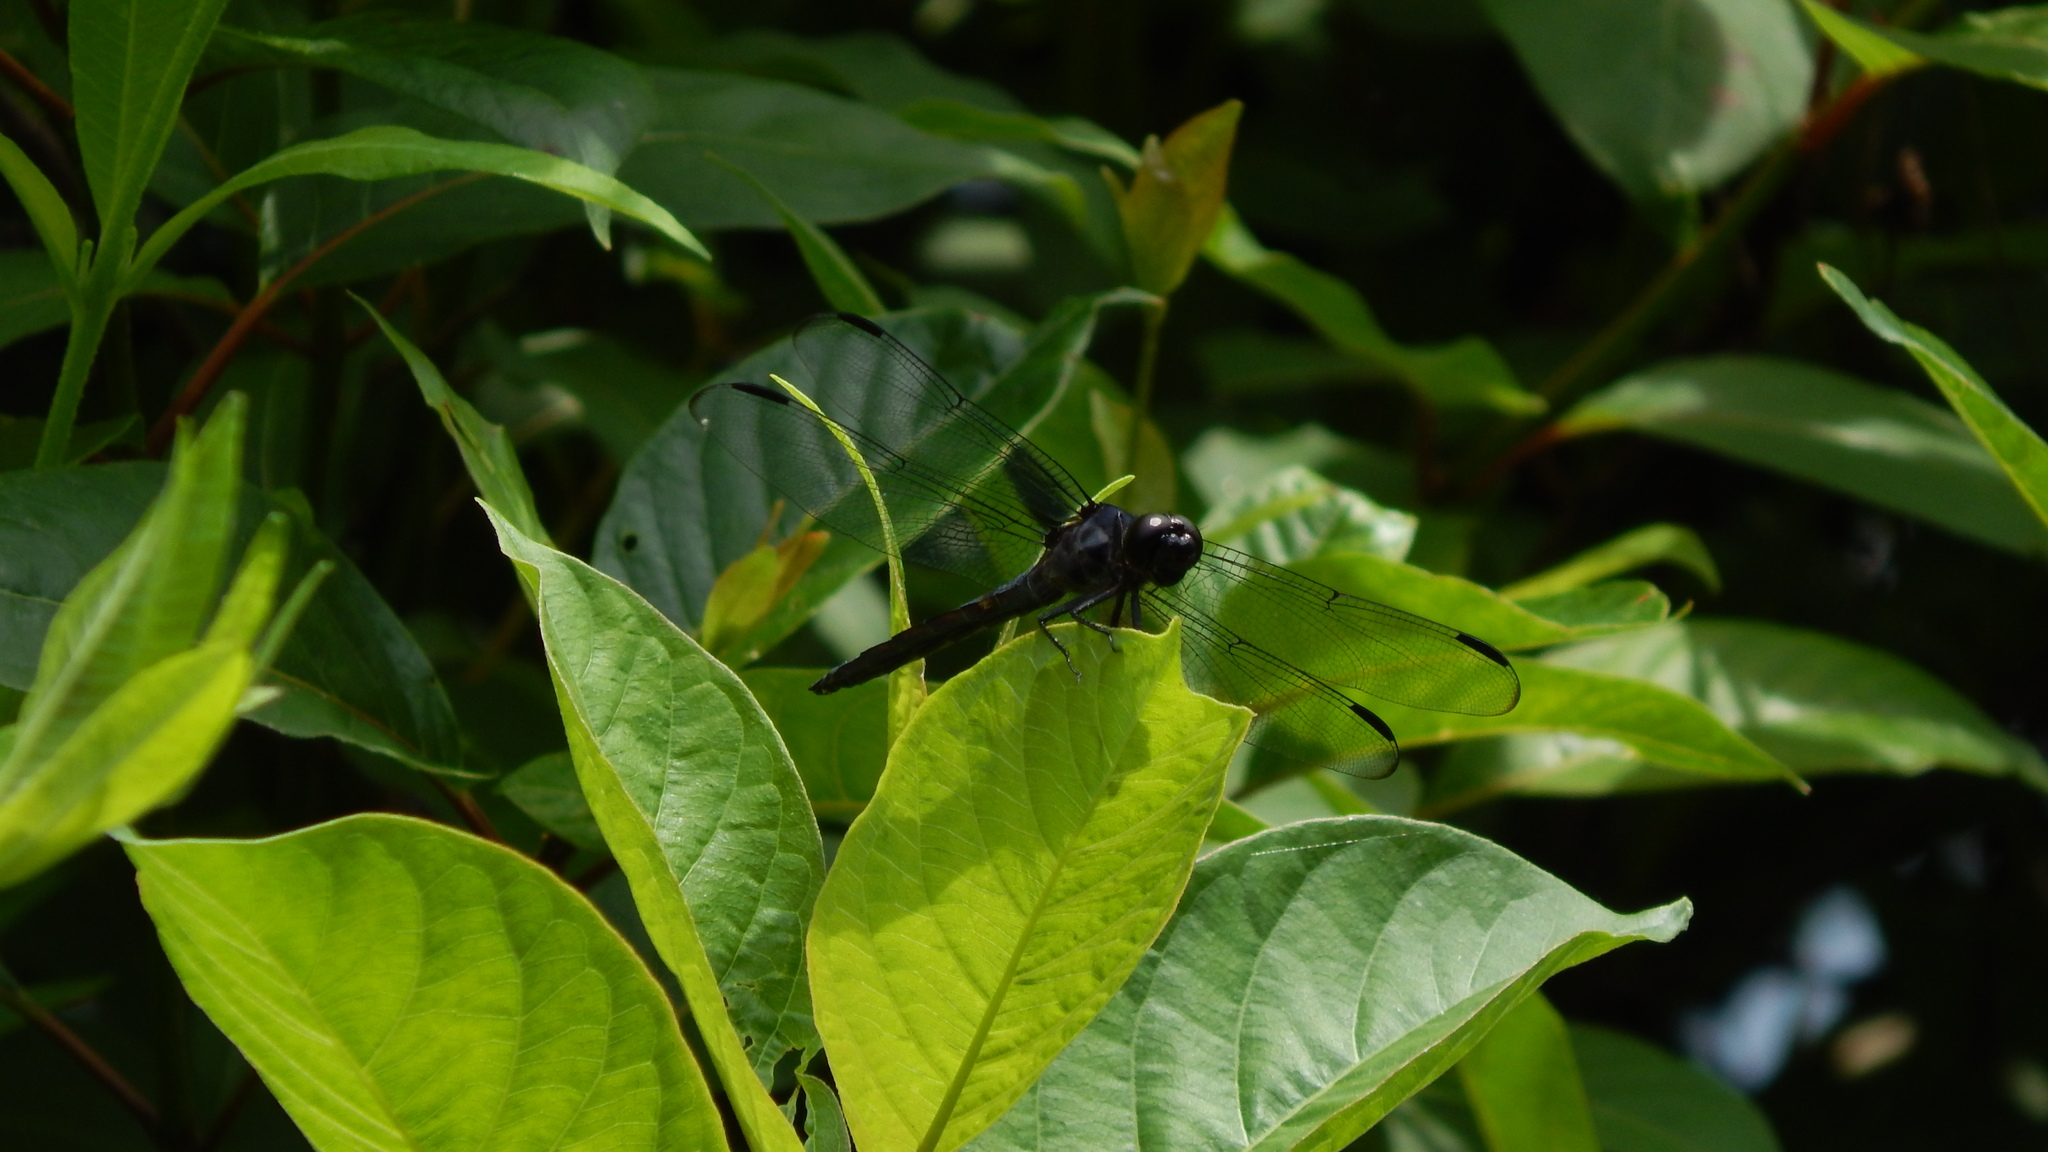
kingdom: Animalia
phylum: Arthropoda
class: Insecta
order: Odonata
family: Libellulidae
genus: Libellula
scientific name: Libellula incesta
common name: Slaty skimmer
